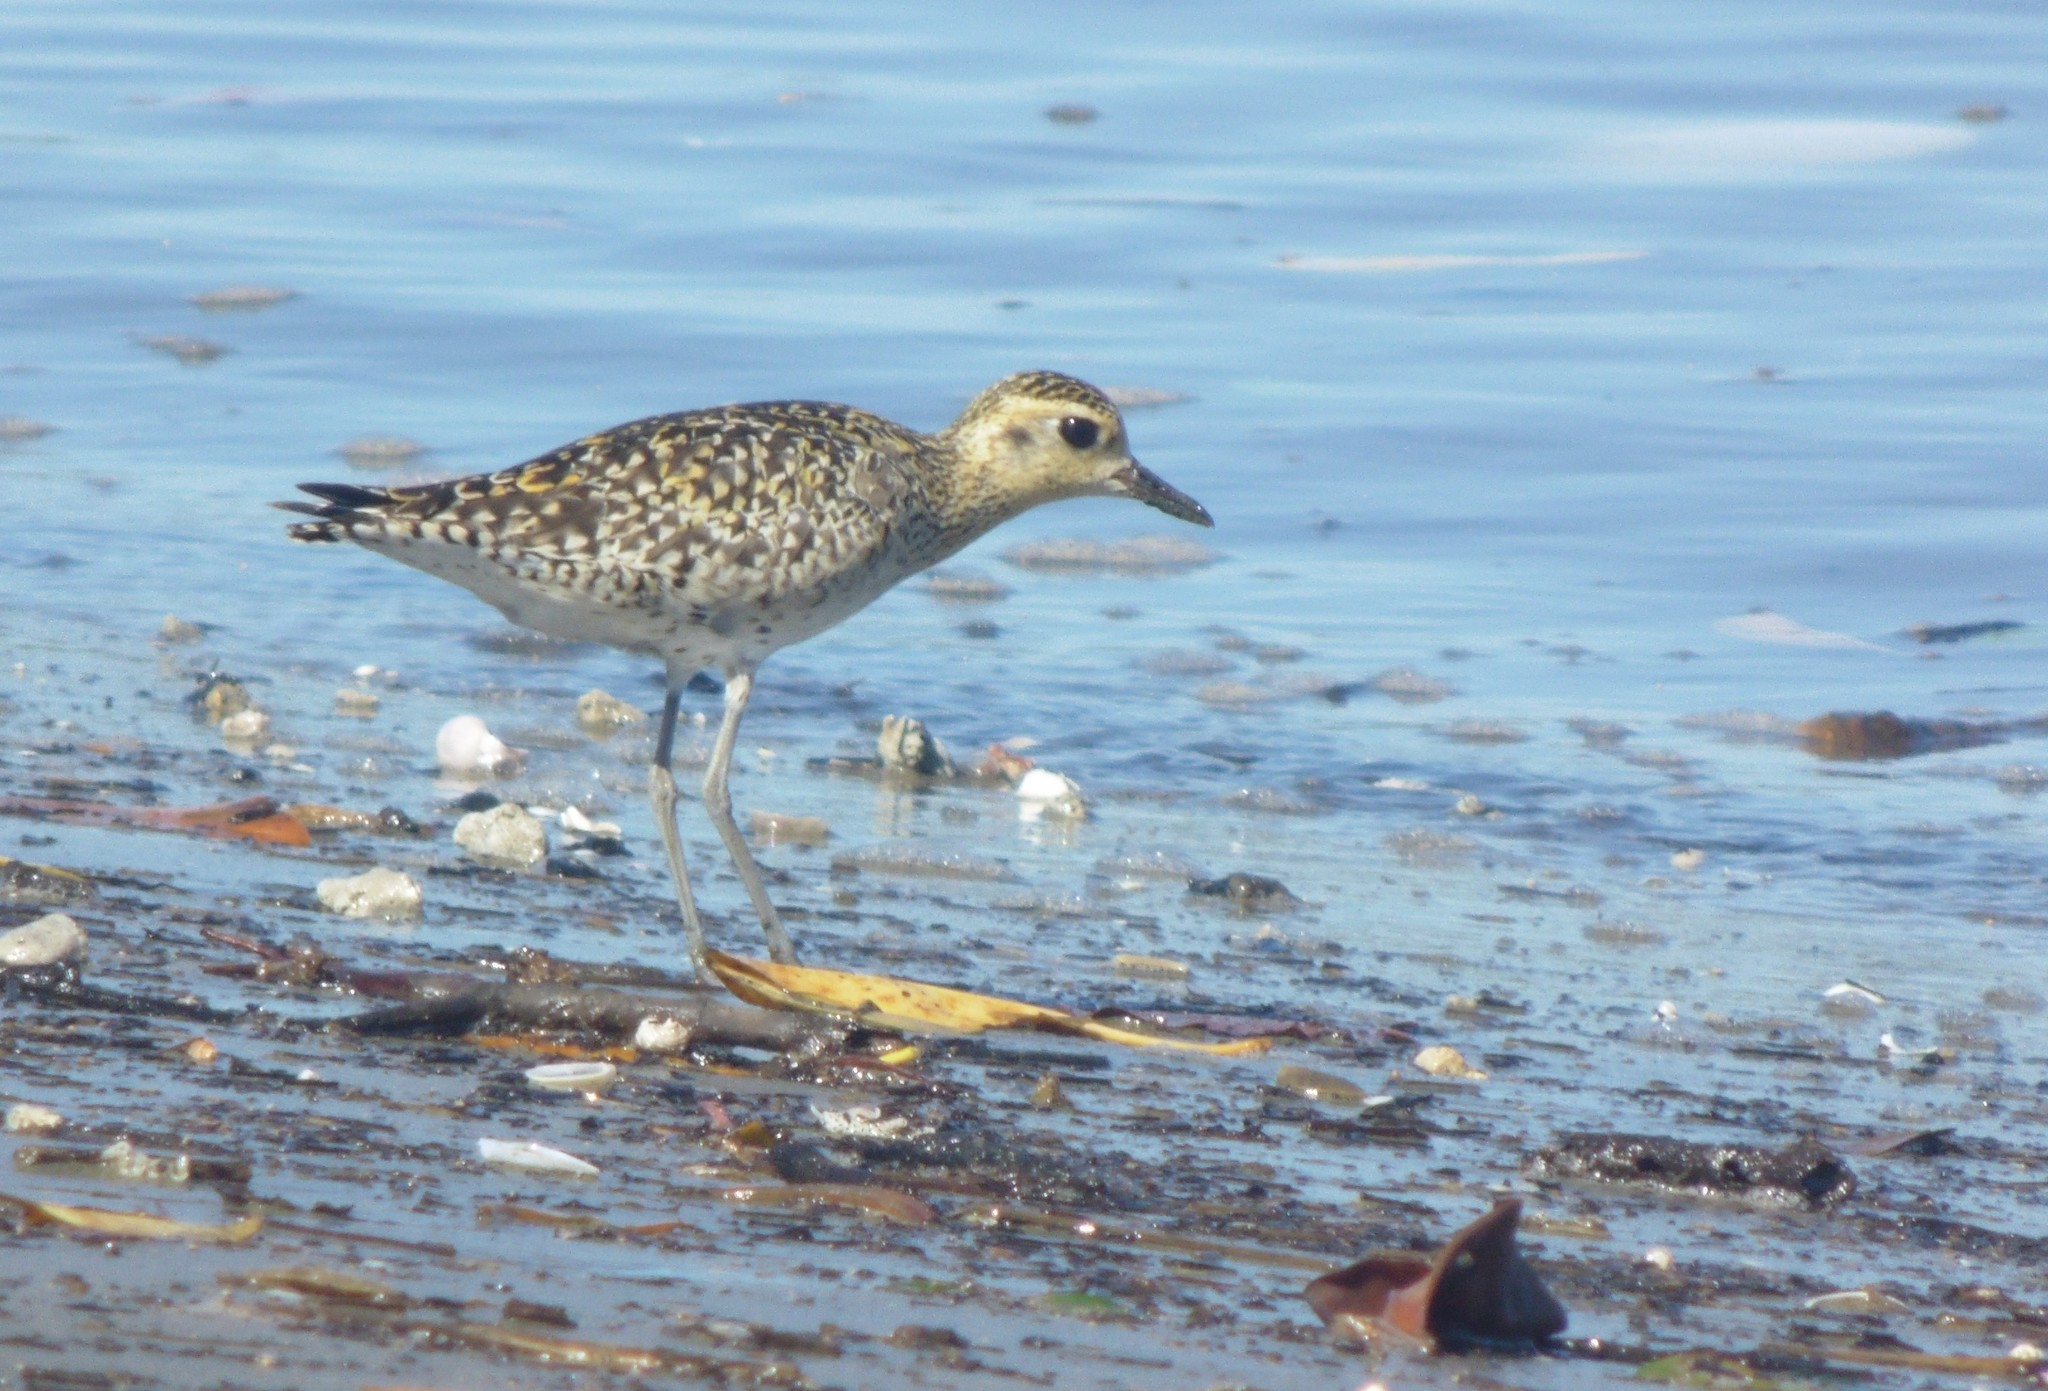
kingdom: Animalia
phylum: Chordata
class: Aves
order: Charadriiformes
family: Charadriidae
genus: Pluvialis
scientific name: Pluvialis fulva
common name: Pacific golden plover
